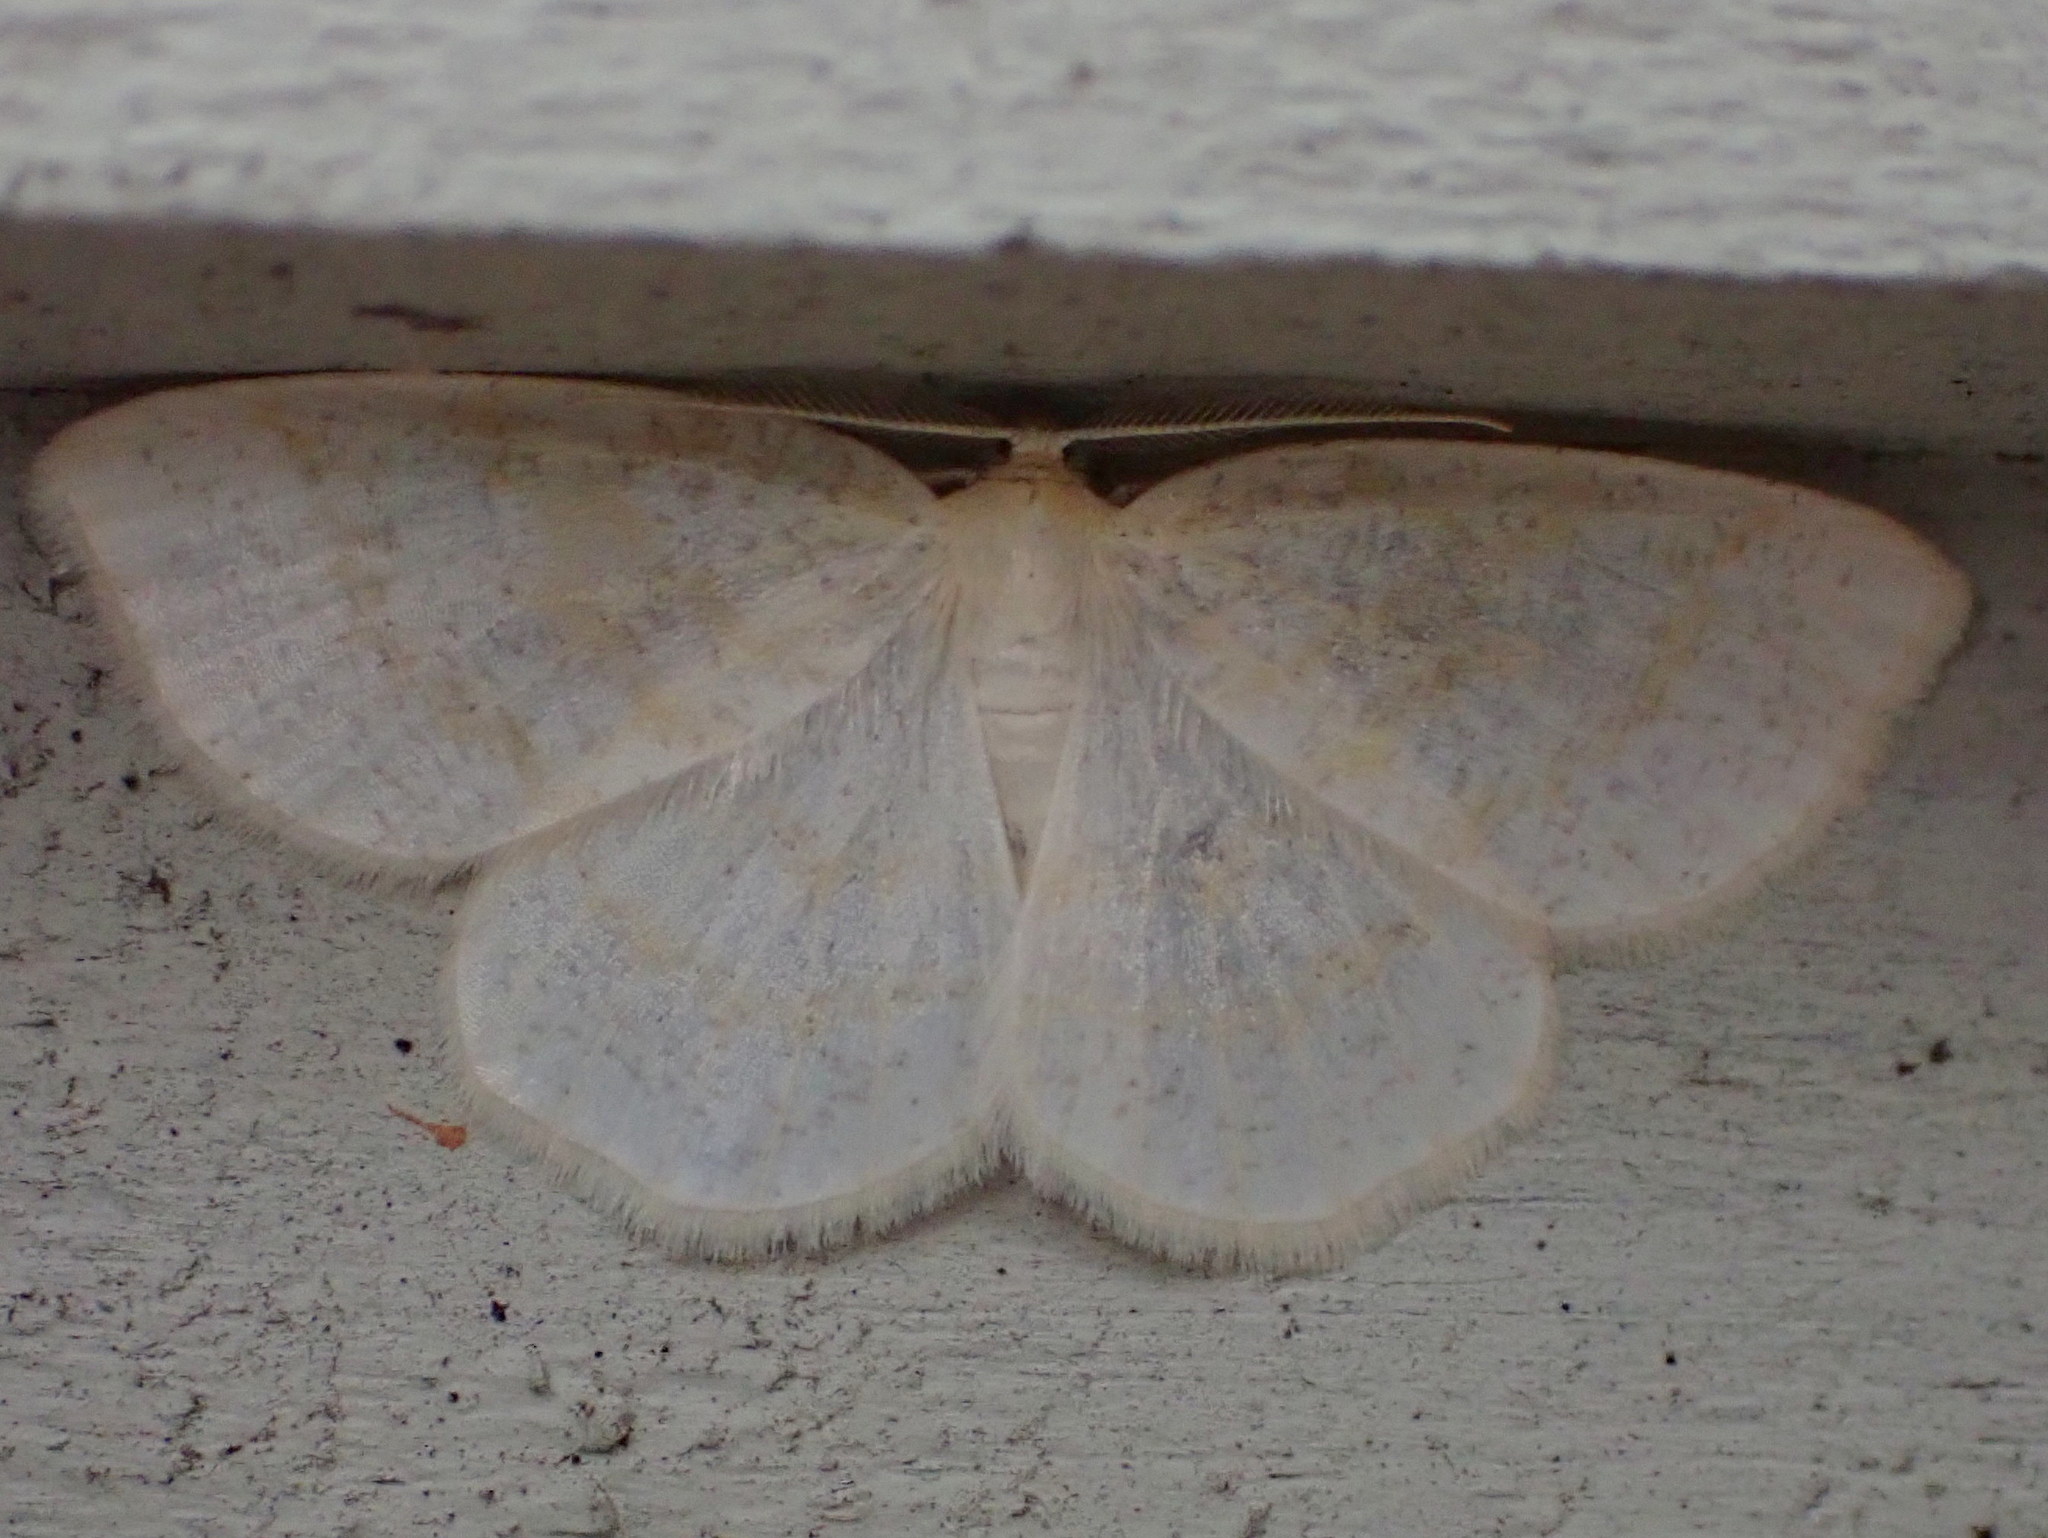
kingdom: Animalia
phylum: Arthropoda
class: Insecta
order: Lepidoptera
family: Geometridae
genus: Cabera
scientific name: Cabera erythemaria
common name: Yellow-dusted cream moth
